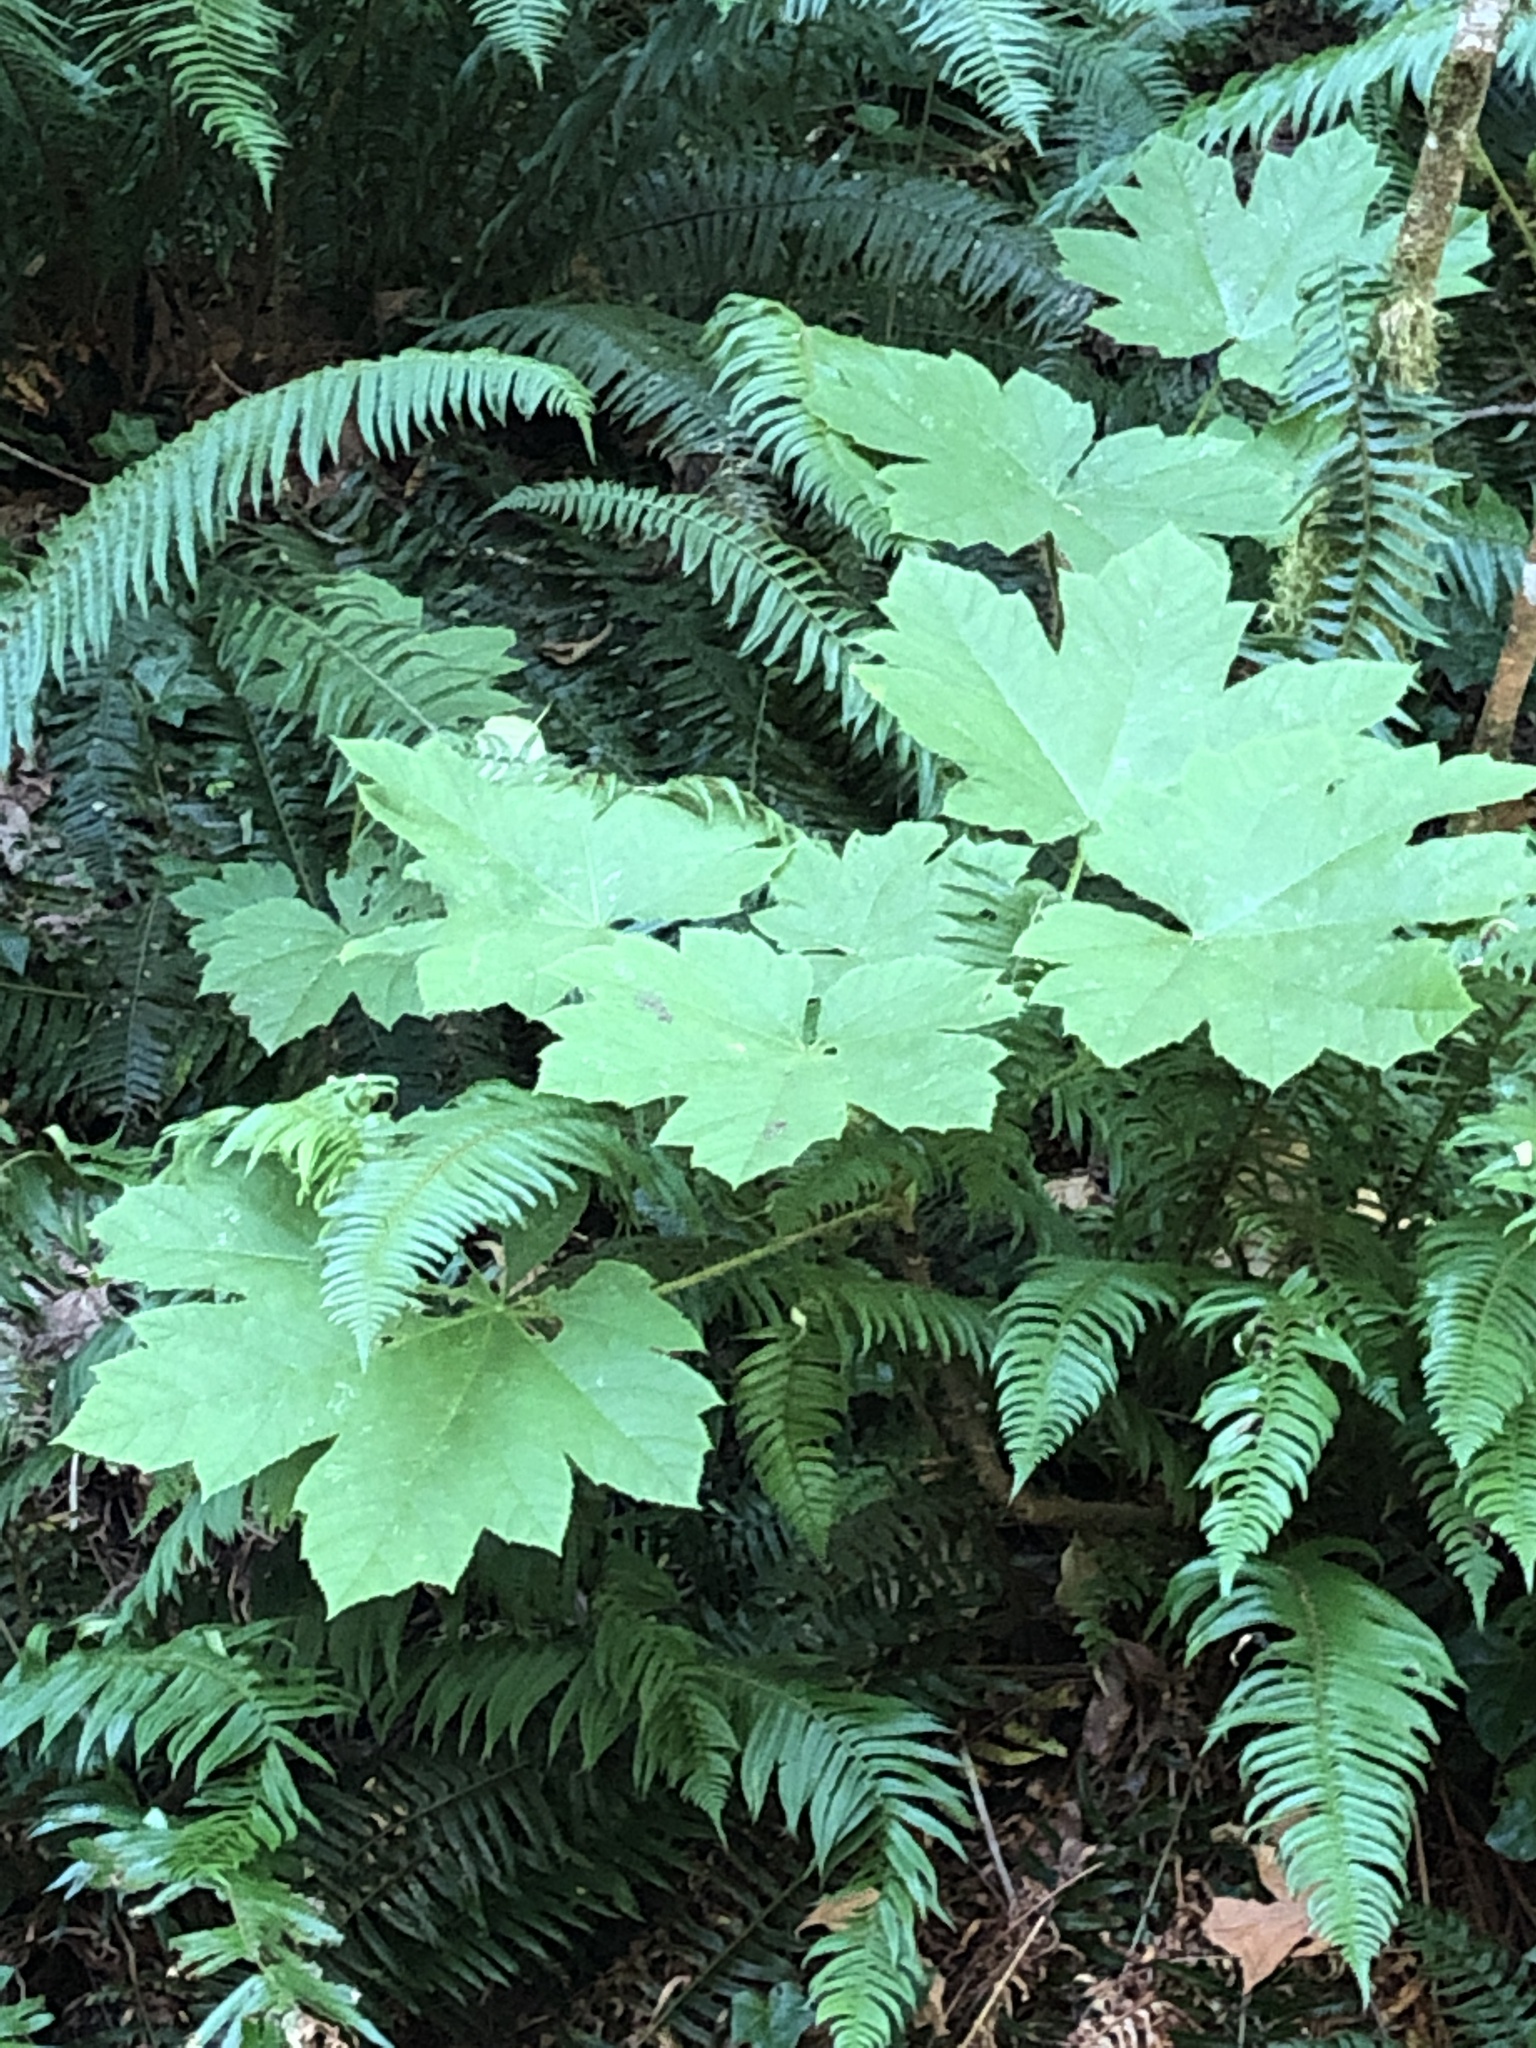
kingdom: Plantae
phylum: Tracheophyta
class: Magnoliopsida
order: Apiales
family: Araliaceae
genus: Oplopanax
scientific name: Oplopanax horridus
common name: Devil's walking-stick
